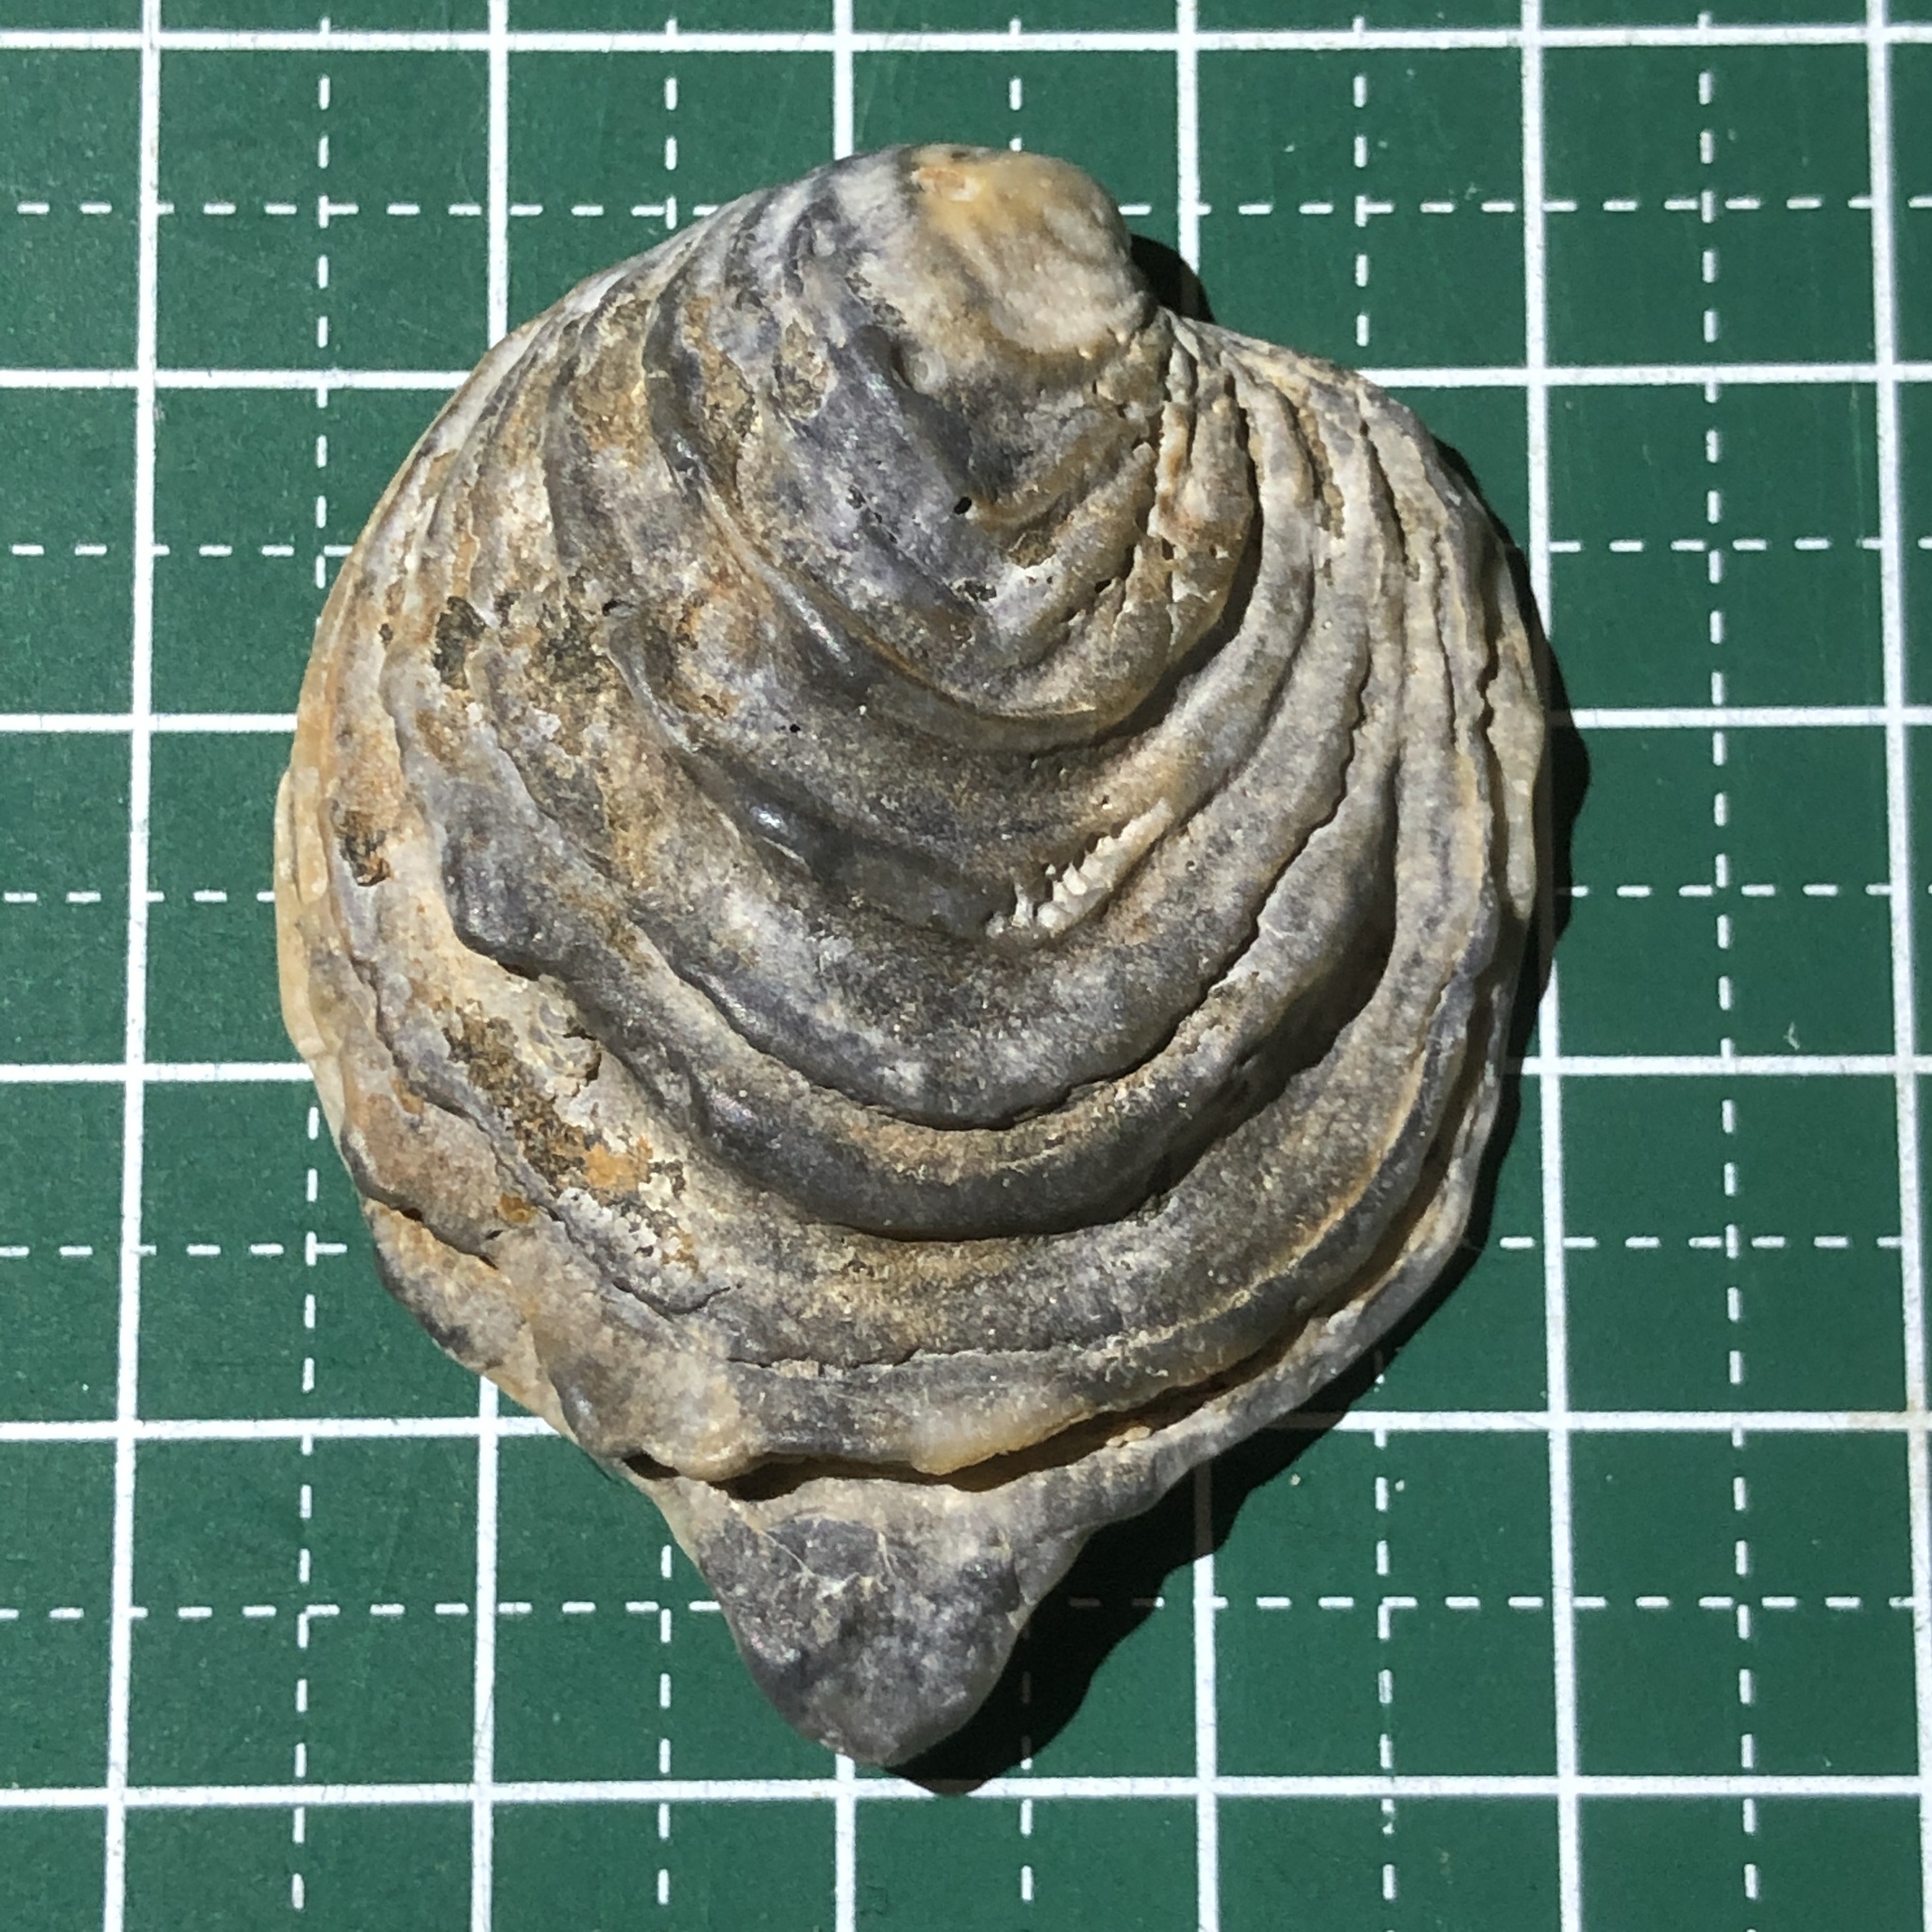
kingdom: Animalia
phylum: Mollusca
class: Bivalvia
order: Venerida
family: Chamidae
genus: Chama
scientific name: Chama lazarus
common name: Lazarus jewel box
